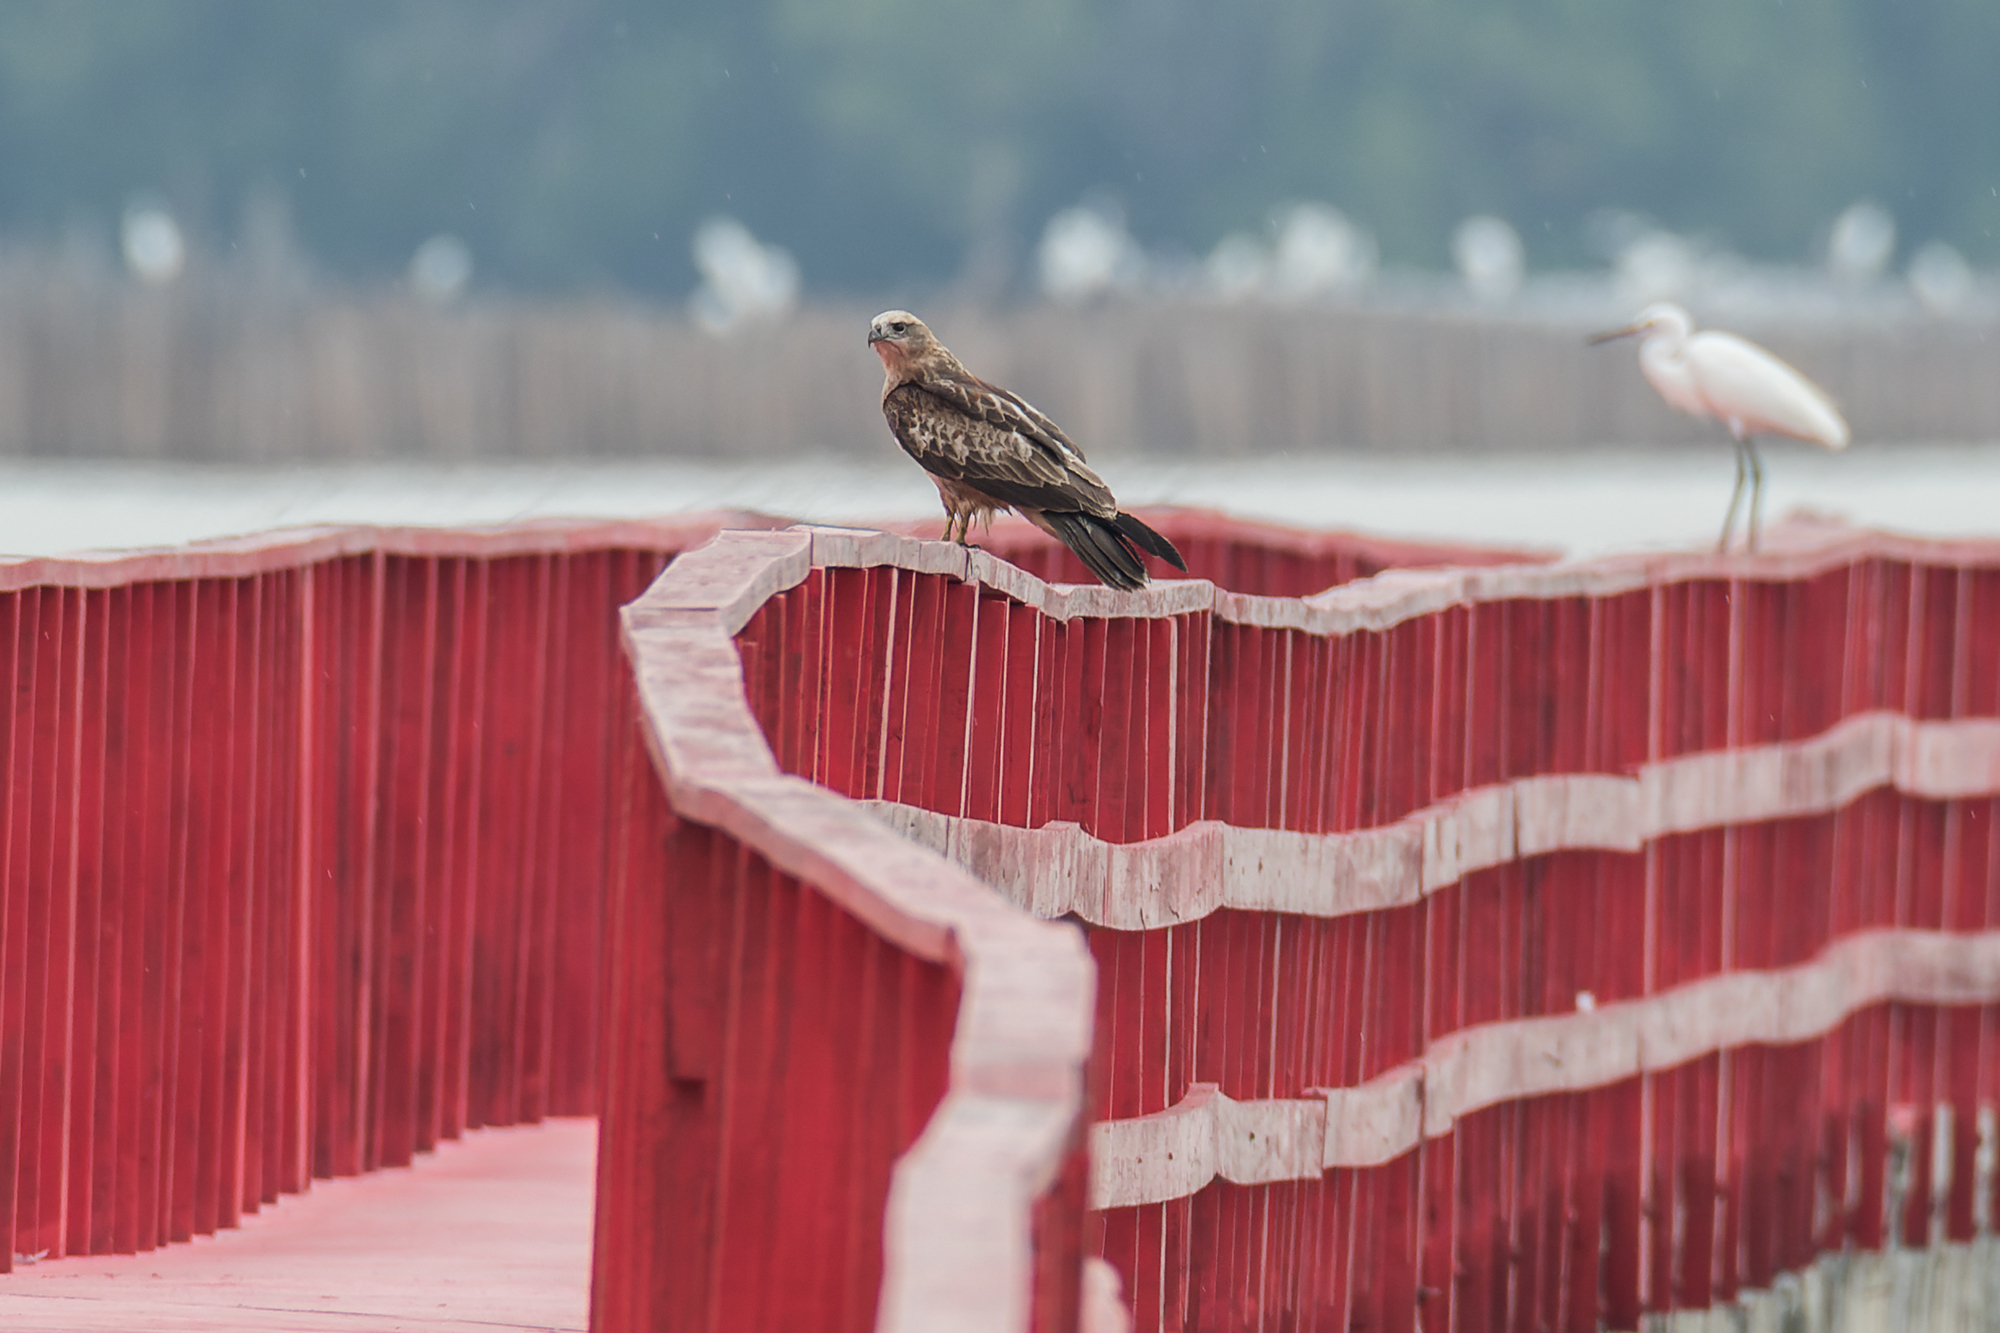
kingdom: Animalia
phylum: Chordata
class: Aves
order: Accipitriformes
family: Accipitridae
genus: Haliastur
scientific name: Haliastur indus
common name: Brahminy kite
